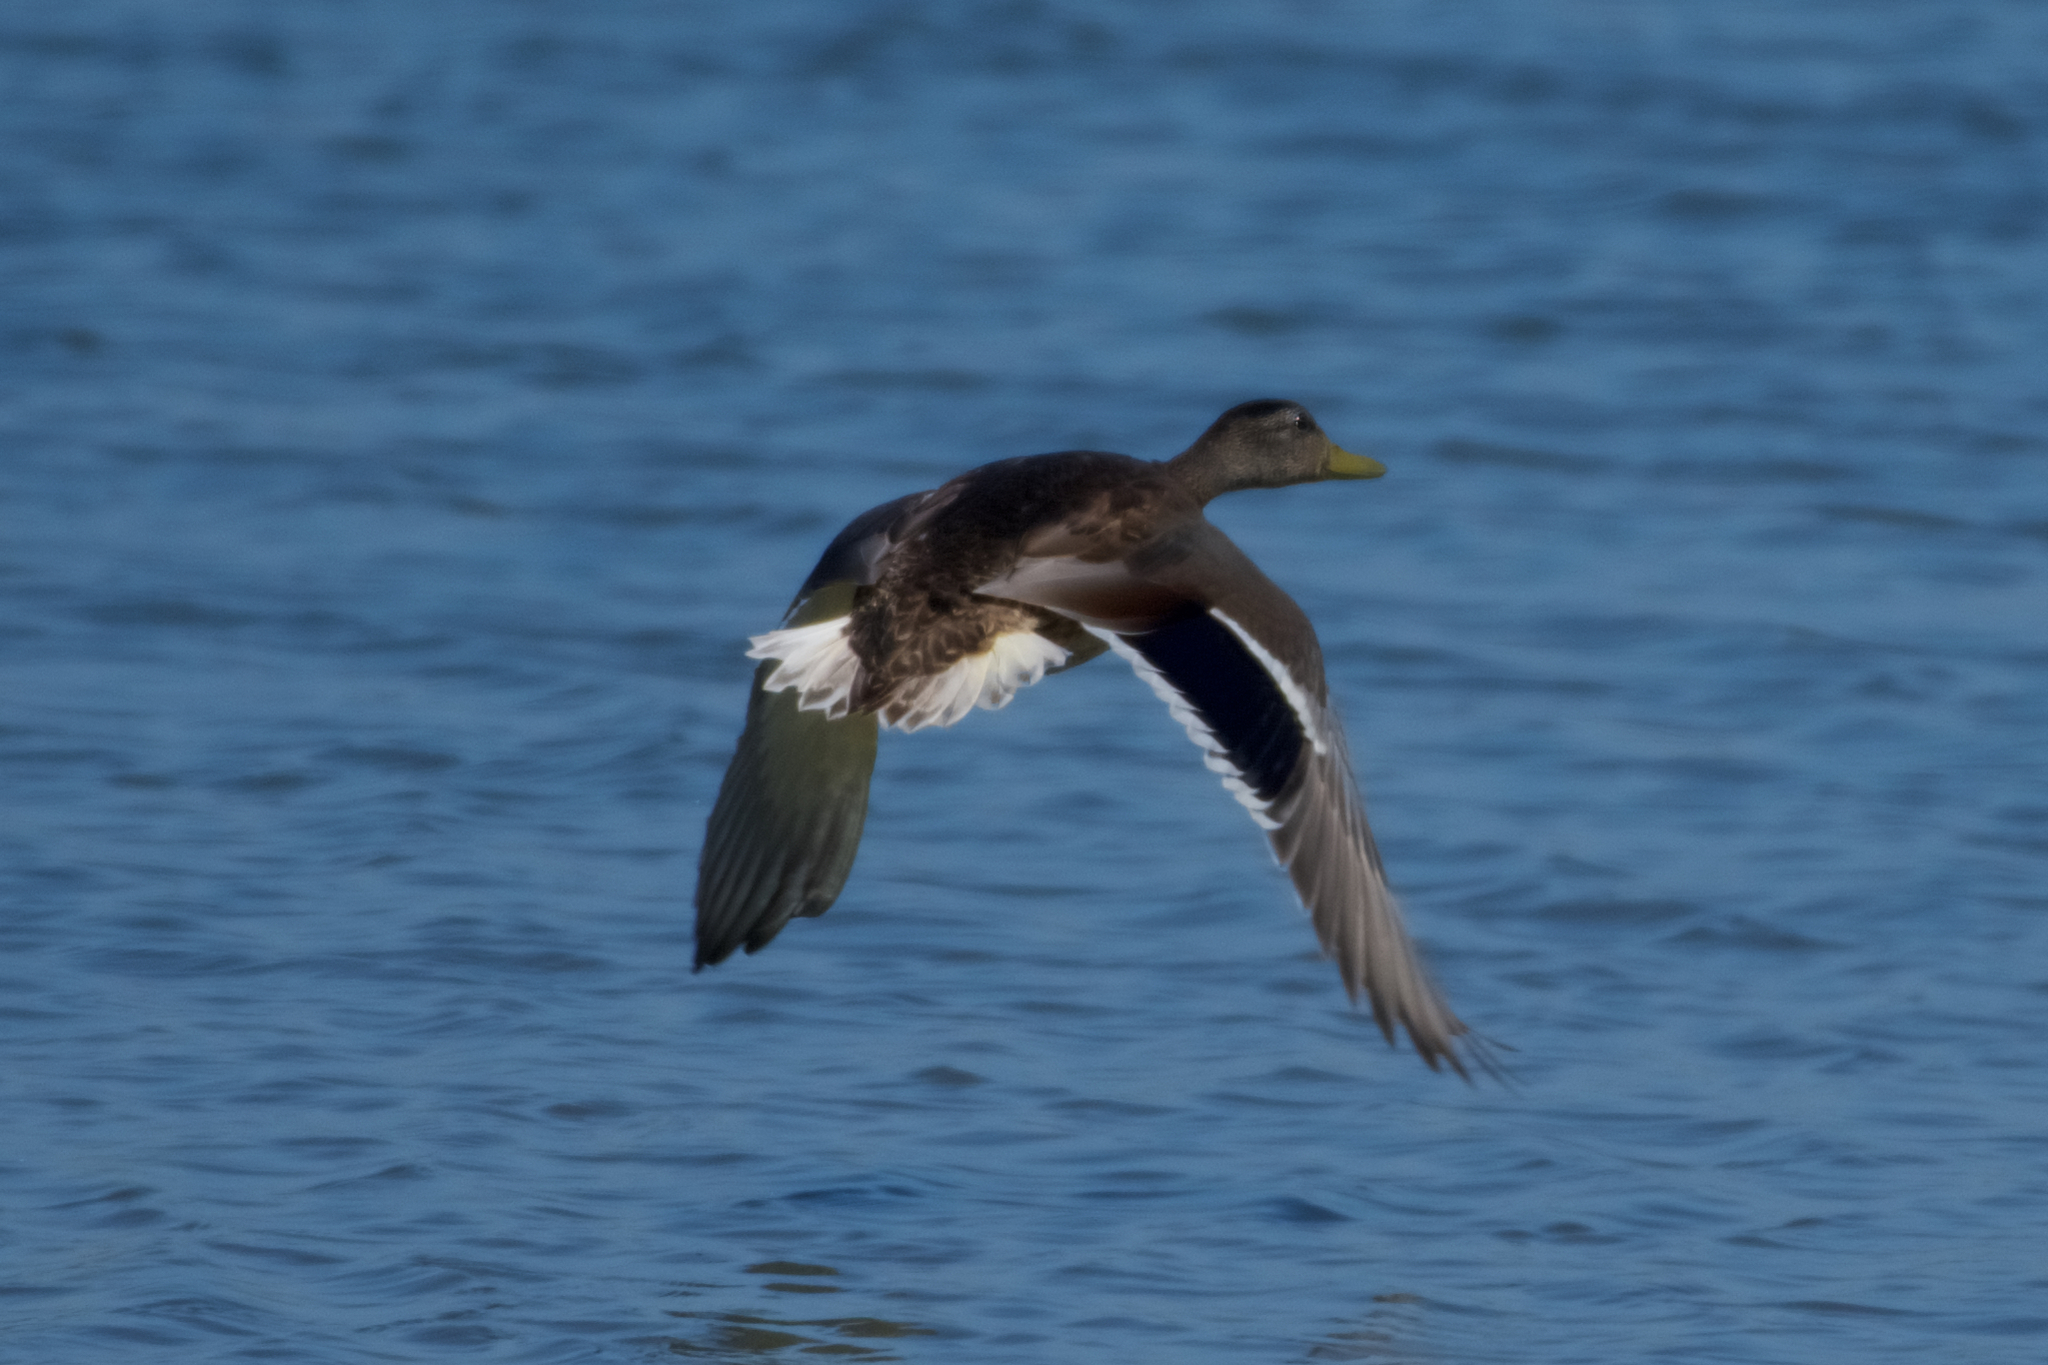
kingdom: Animalia
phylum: Chordata
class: Aves
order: Anseriformes
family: Anatidae
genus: Anas
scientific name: Anas platyrhynchos
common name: Mallard
